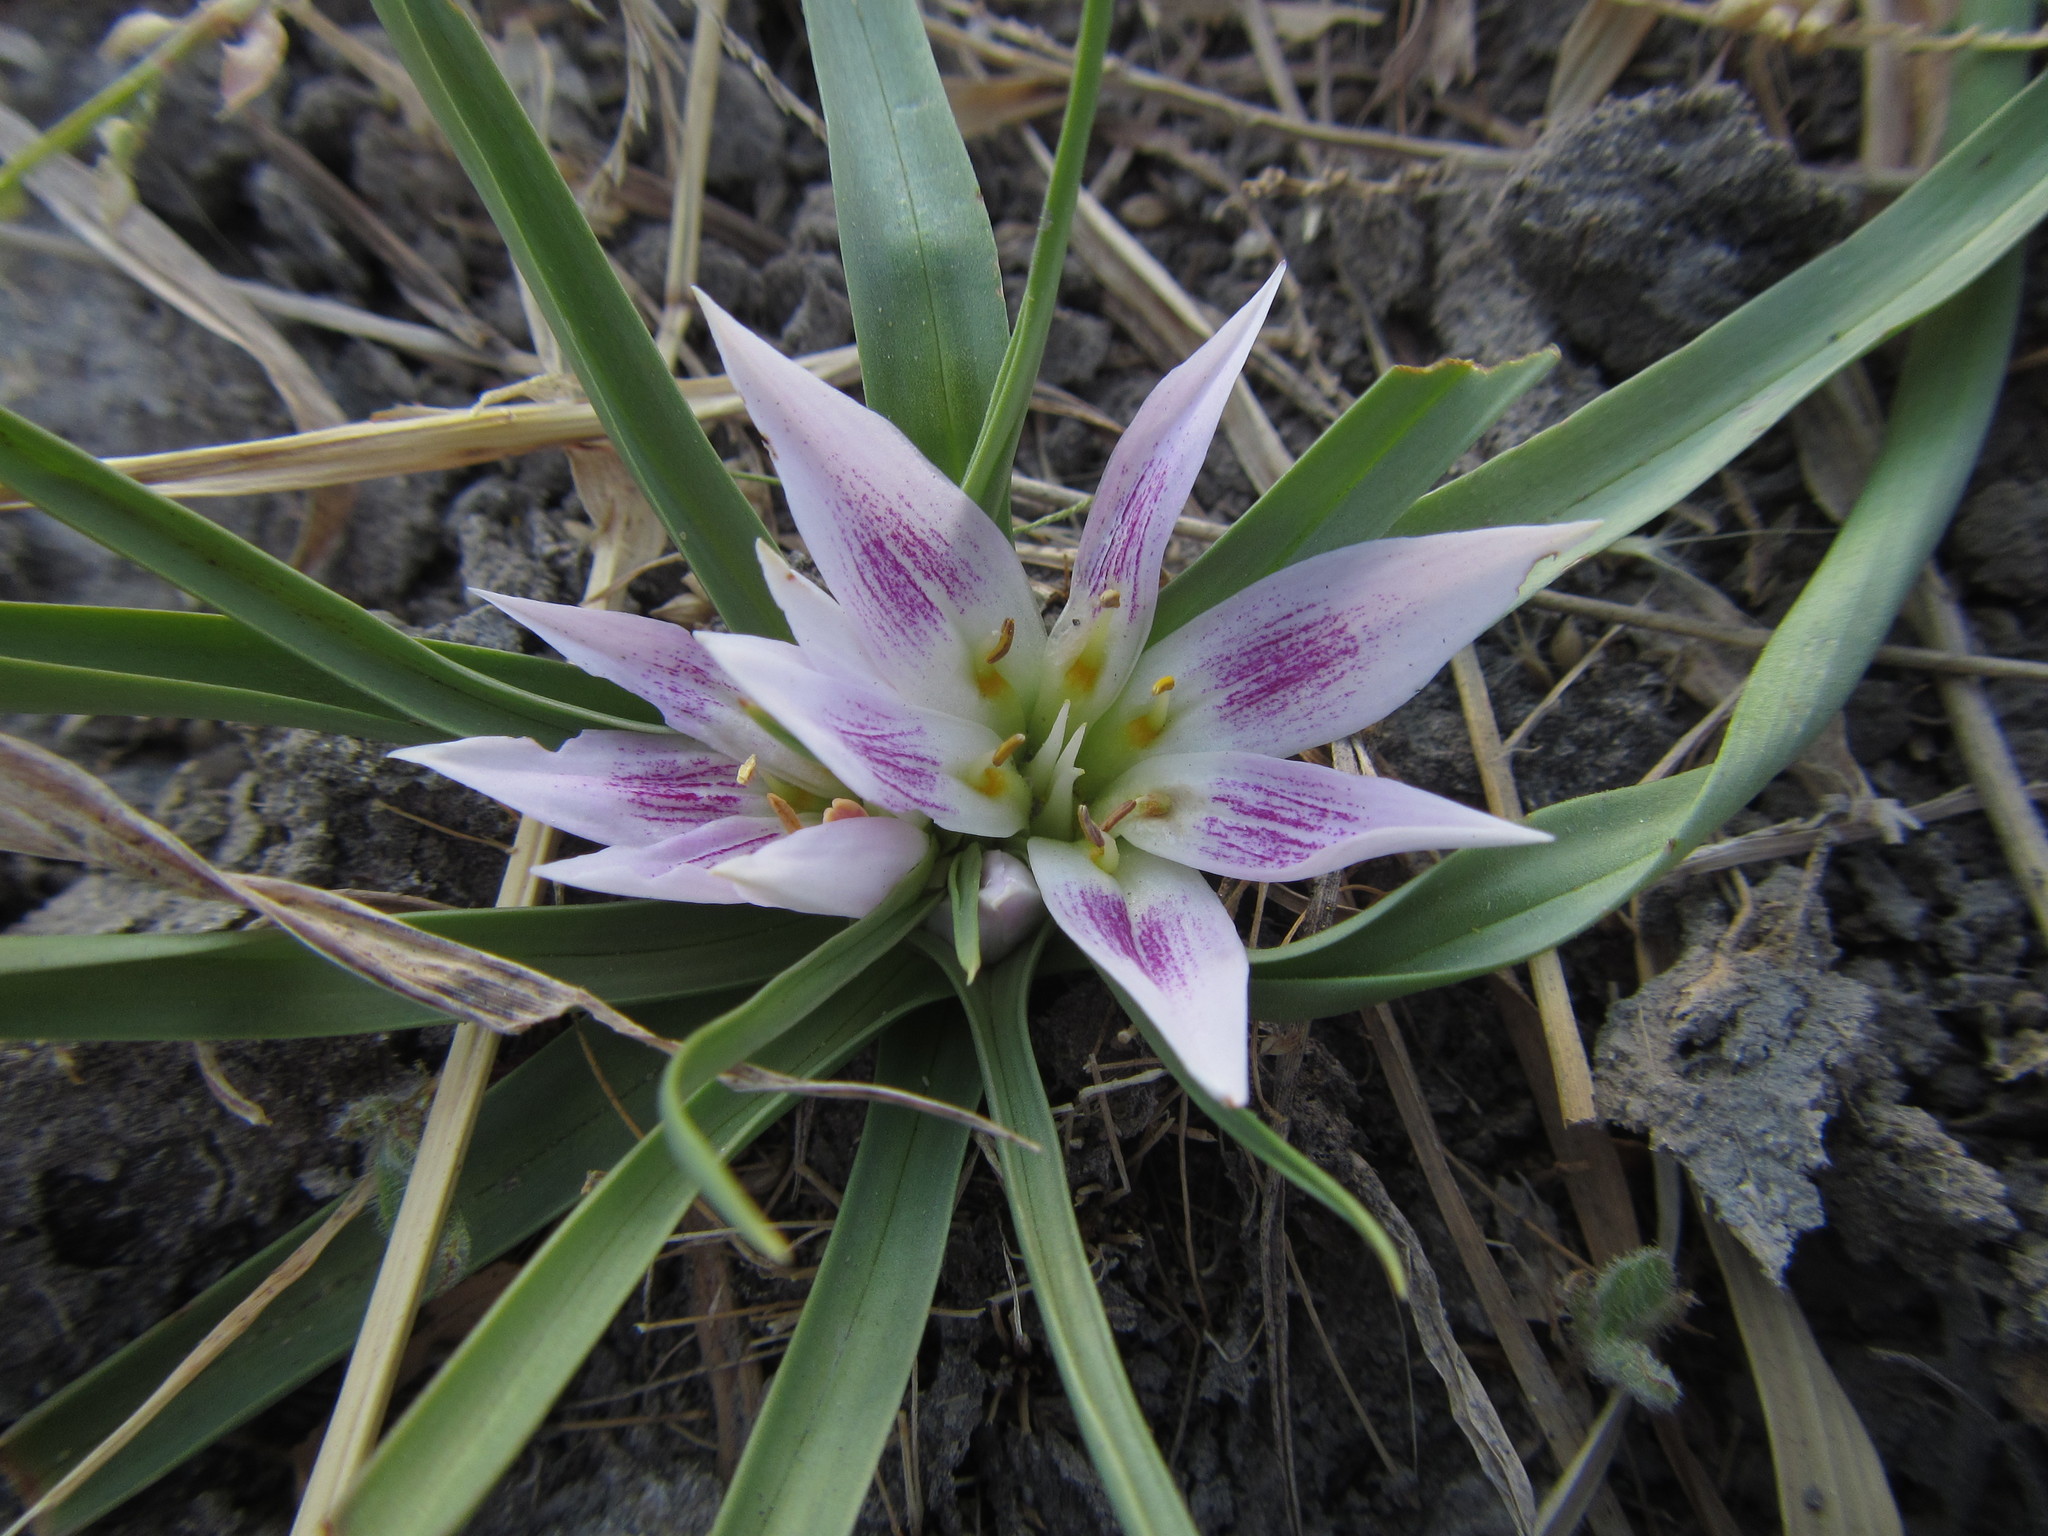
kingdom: Plantae
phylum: Tracheophyta
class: Liliopsida
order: Liliales
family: Colchicaceae
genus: Colchicum
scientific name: Colchicum roseum
